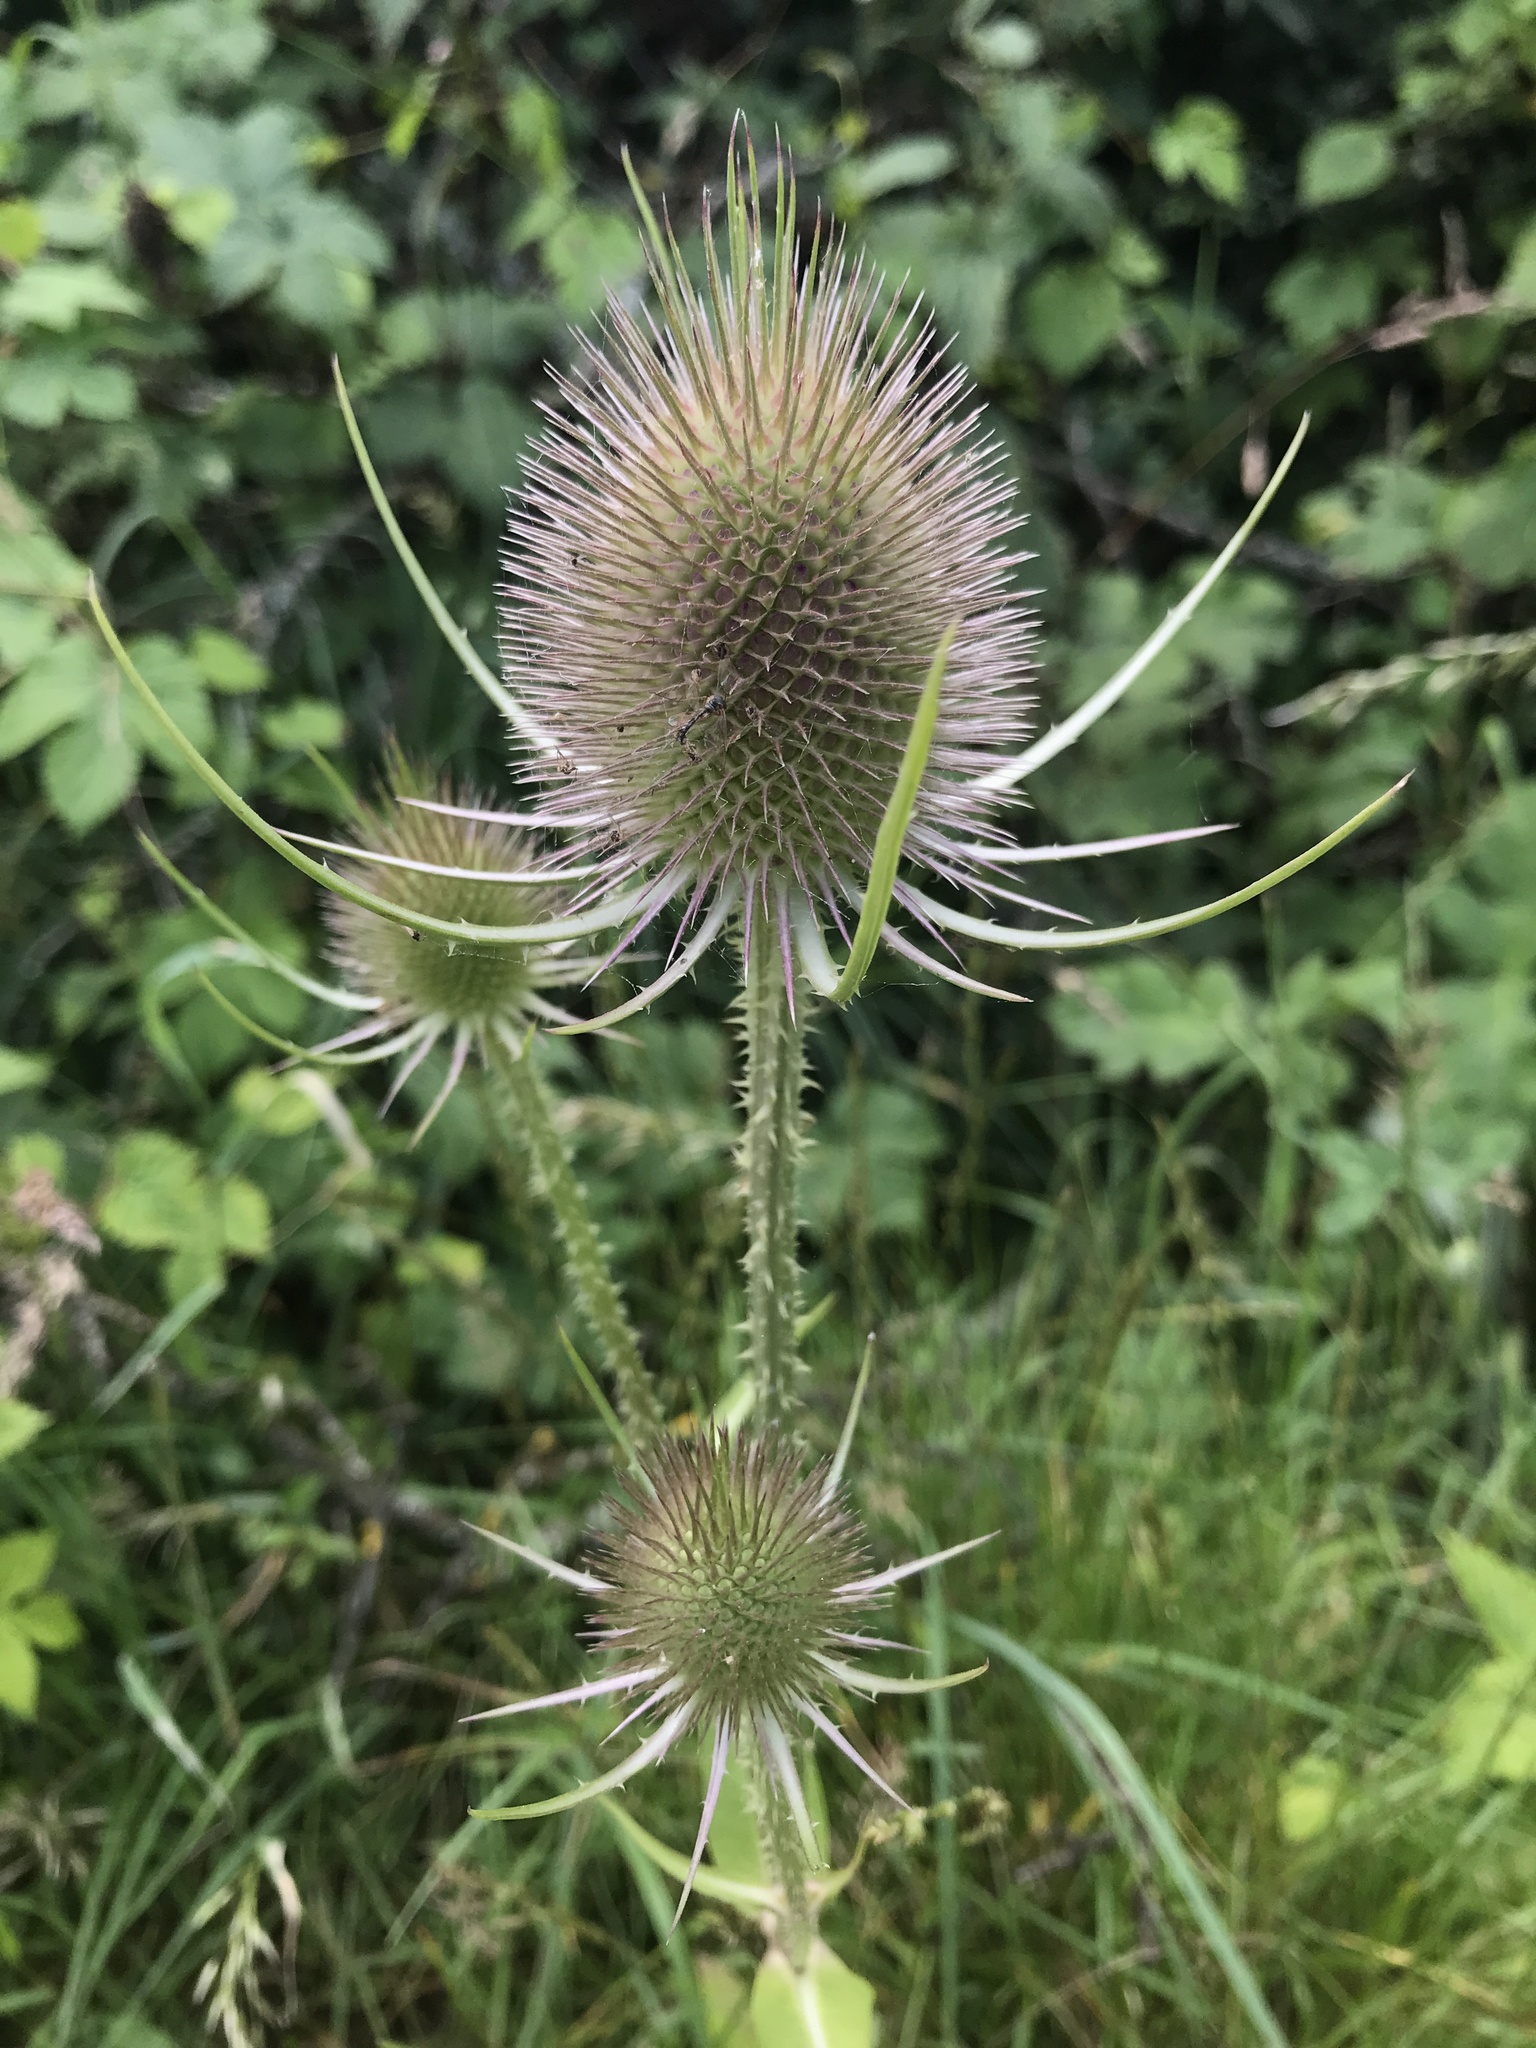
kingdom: Plantae
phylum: Tracheophyta
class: Magnoliopsida
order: Dipsacales
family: Caprifoliaceae
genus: Dipsacus
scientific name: Dipsacus fullonum
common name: Teasel
